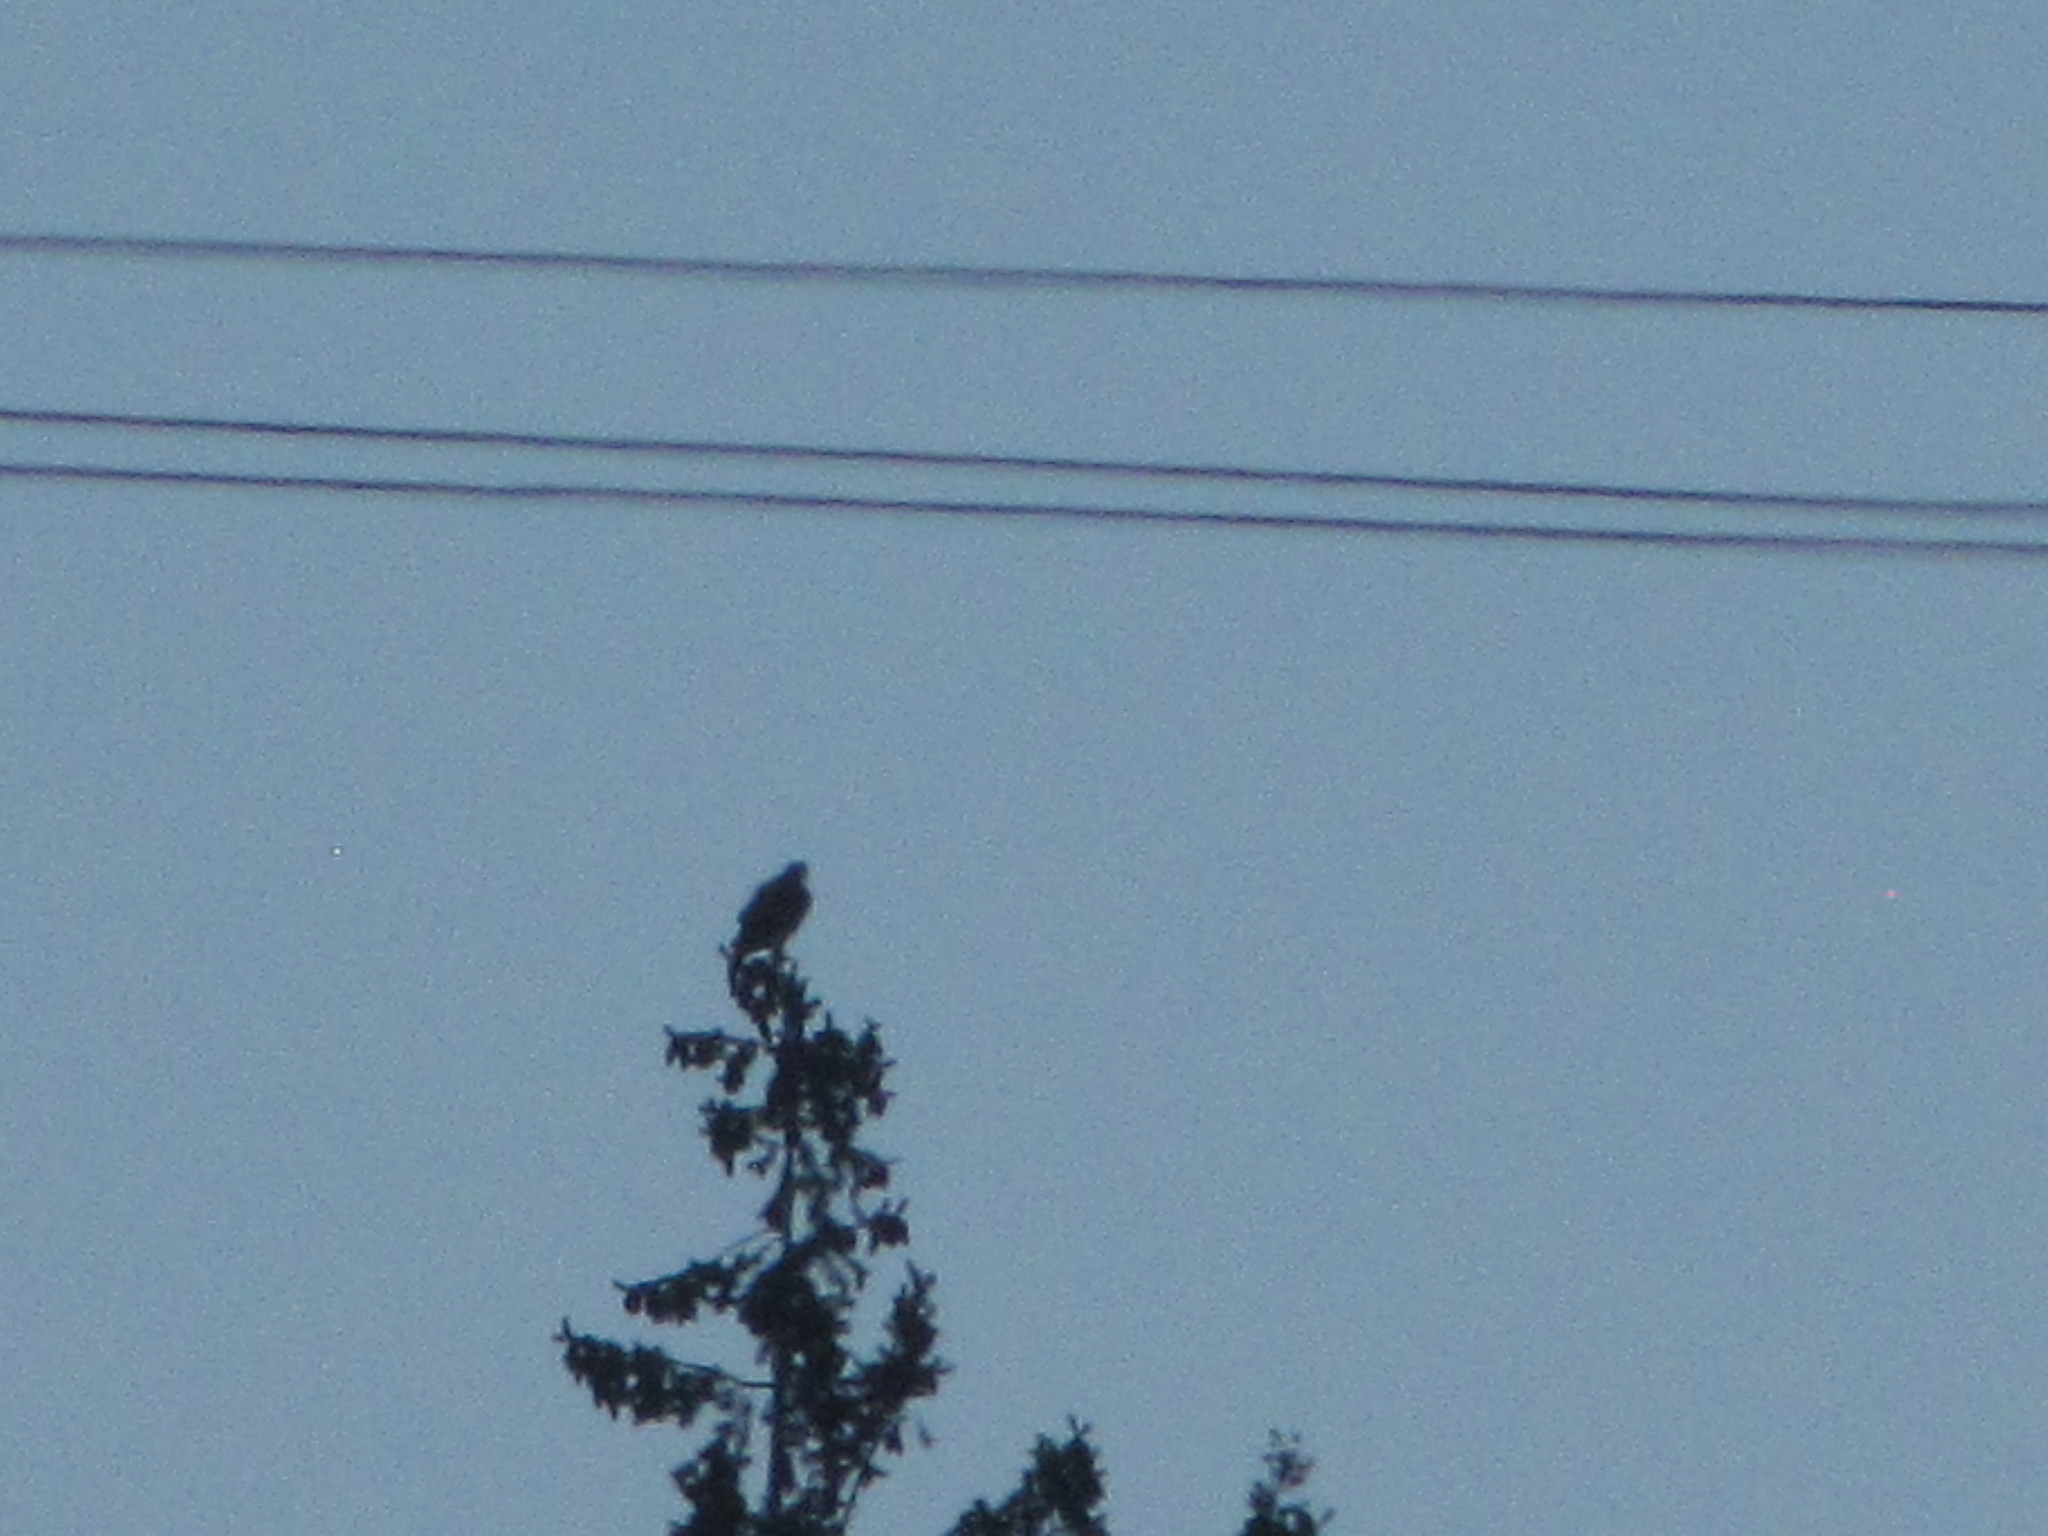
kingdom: Animalia
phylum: Chordata
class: Aves
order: Accipitriformes
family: Accipitridae
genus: Haliaeetus
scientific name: Haliaeetus leucocephalus
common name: Bald eagle
